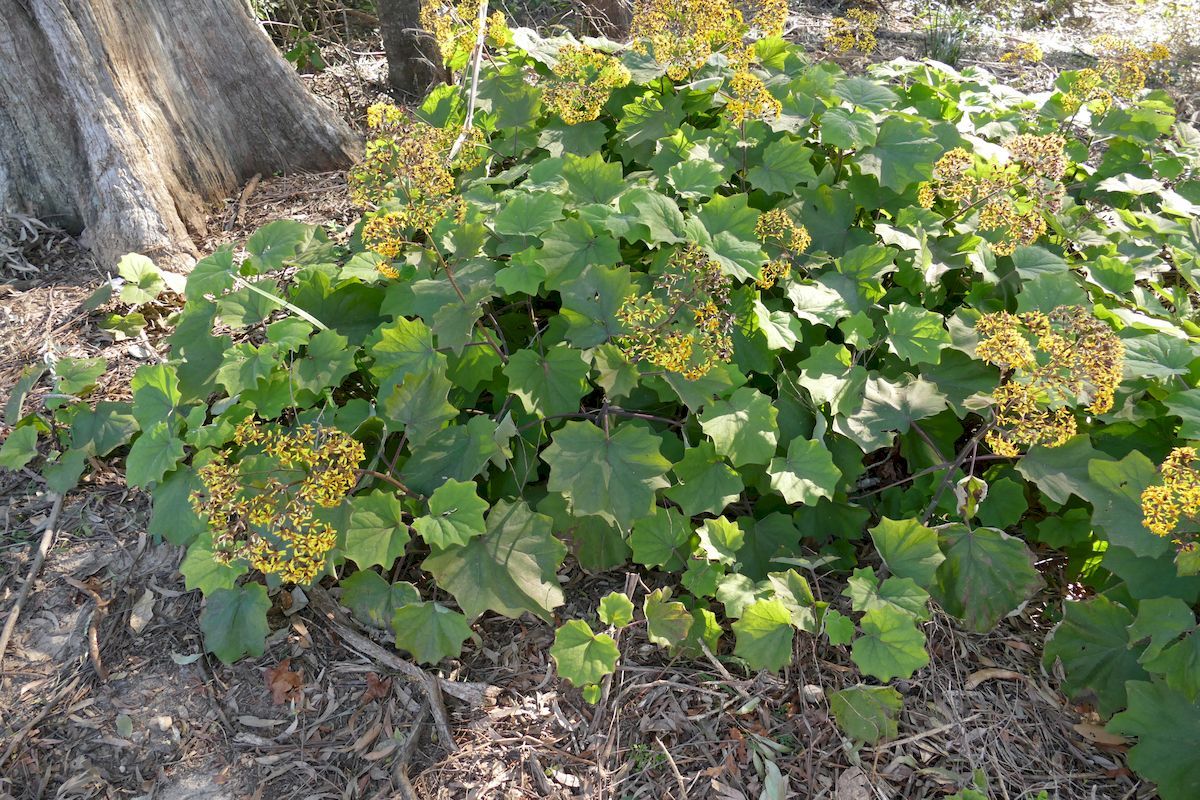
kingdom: Plantae
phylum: Tracheophyta
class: Magnoliopsida
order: Asterales
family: Asteraceae
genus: Roldana
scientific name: Roldana petasitis
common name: California-geranium
